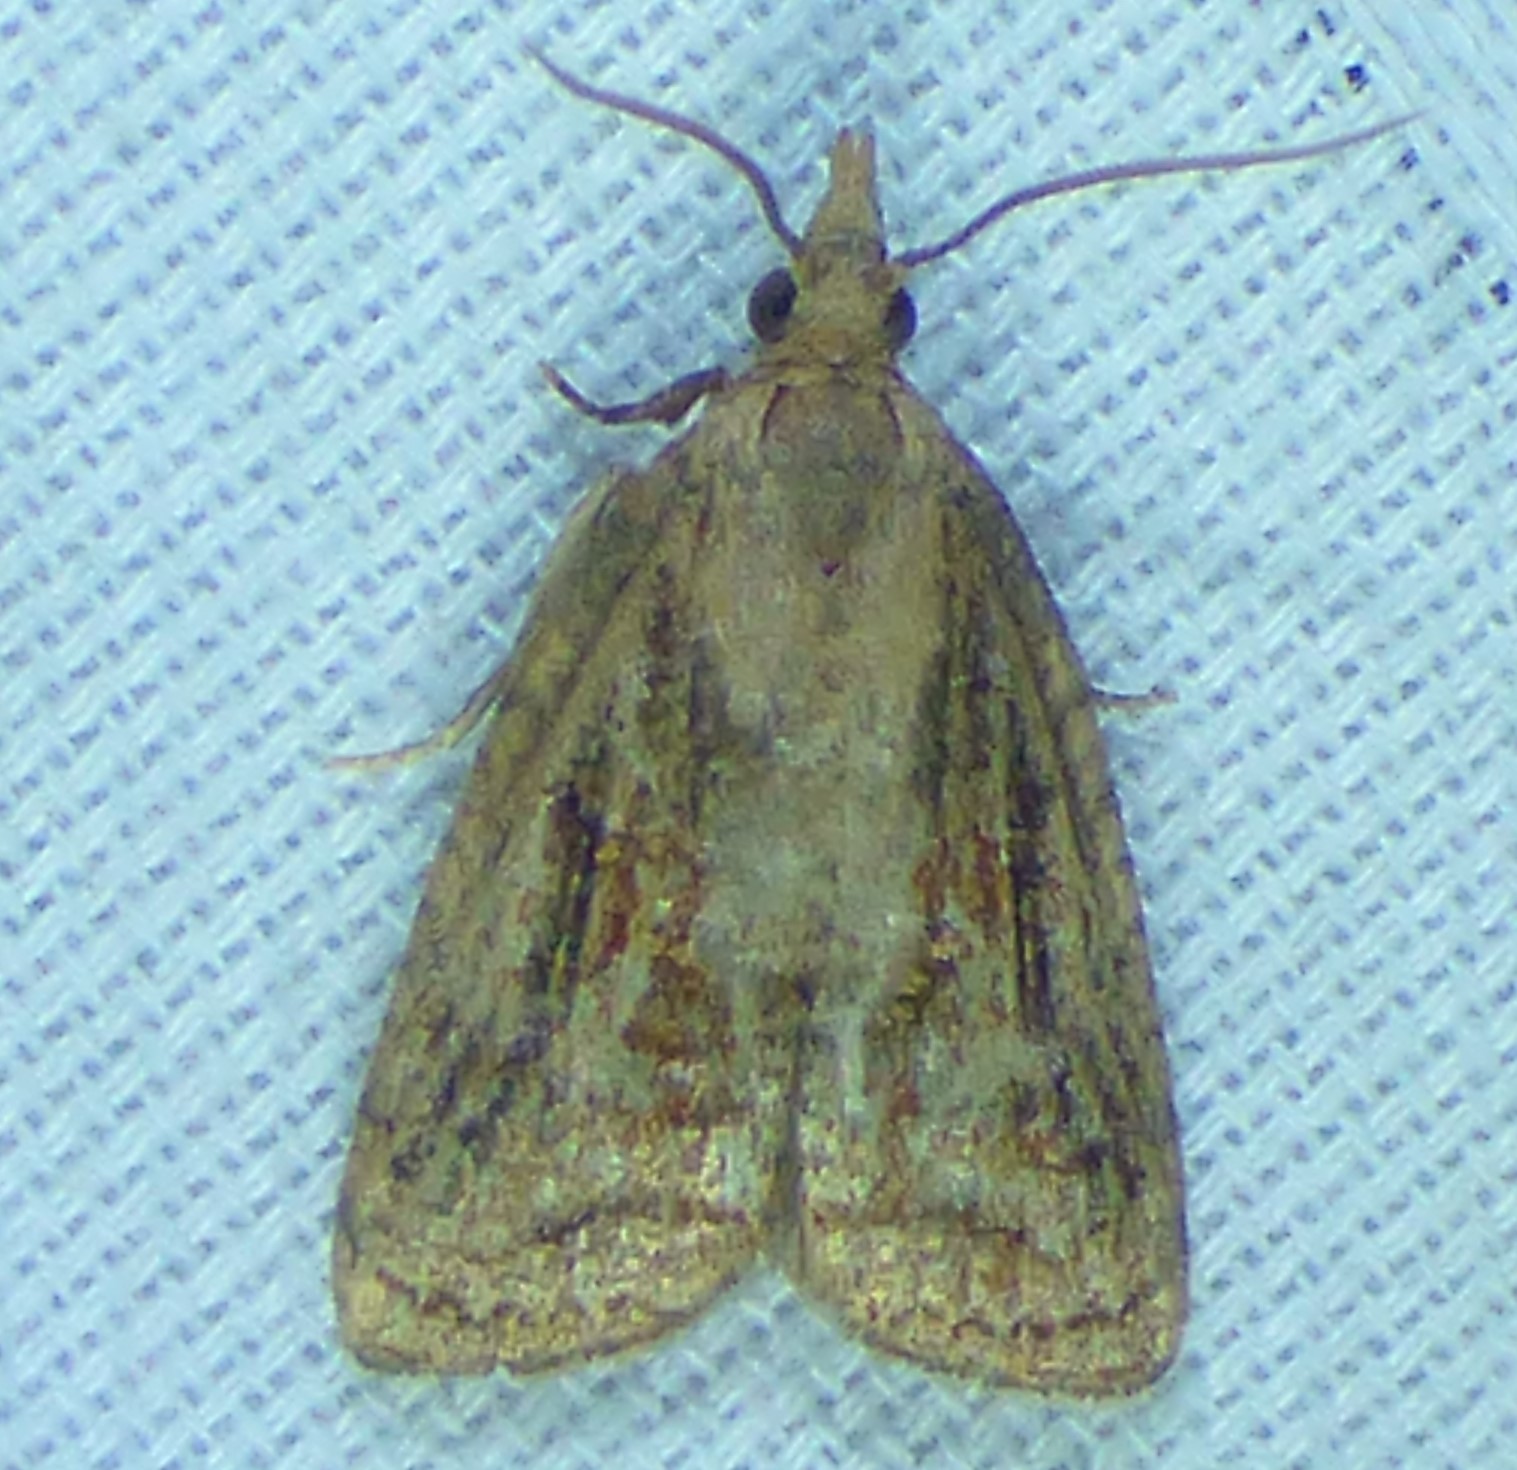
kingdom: Animalia
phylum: Arthropoda
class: Insecta
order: Lepidoptera
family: Tortricidae
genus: Platynota
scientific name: Platynota idaeusalis
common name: Tufted apple bud moth
